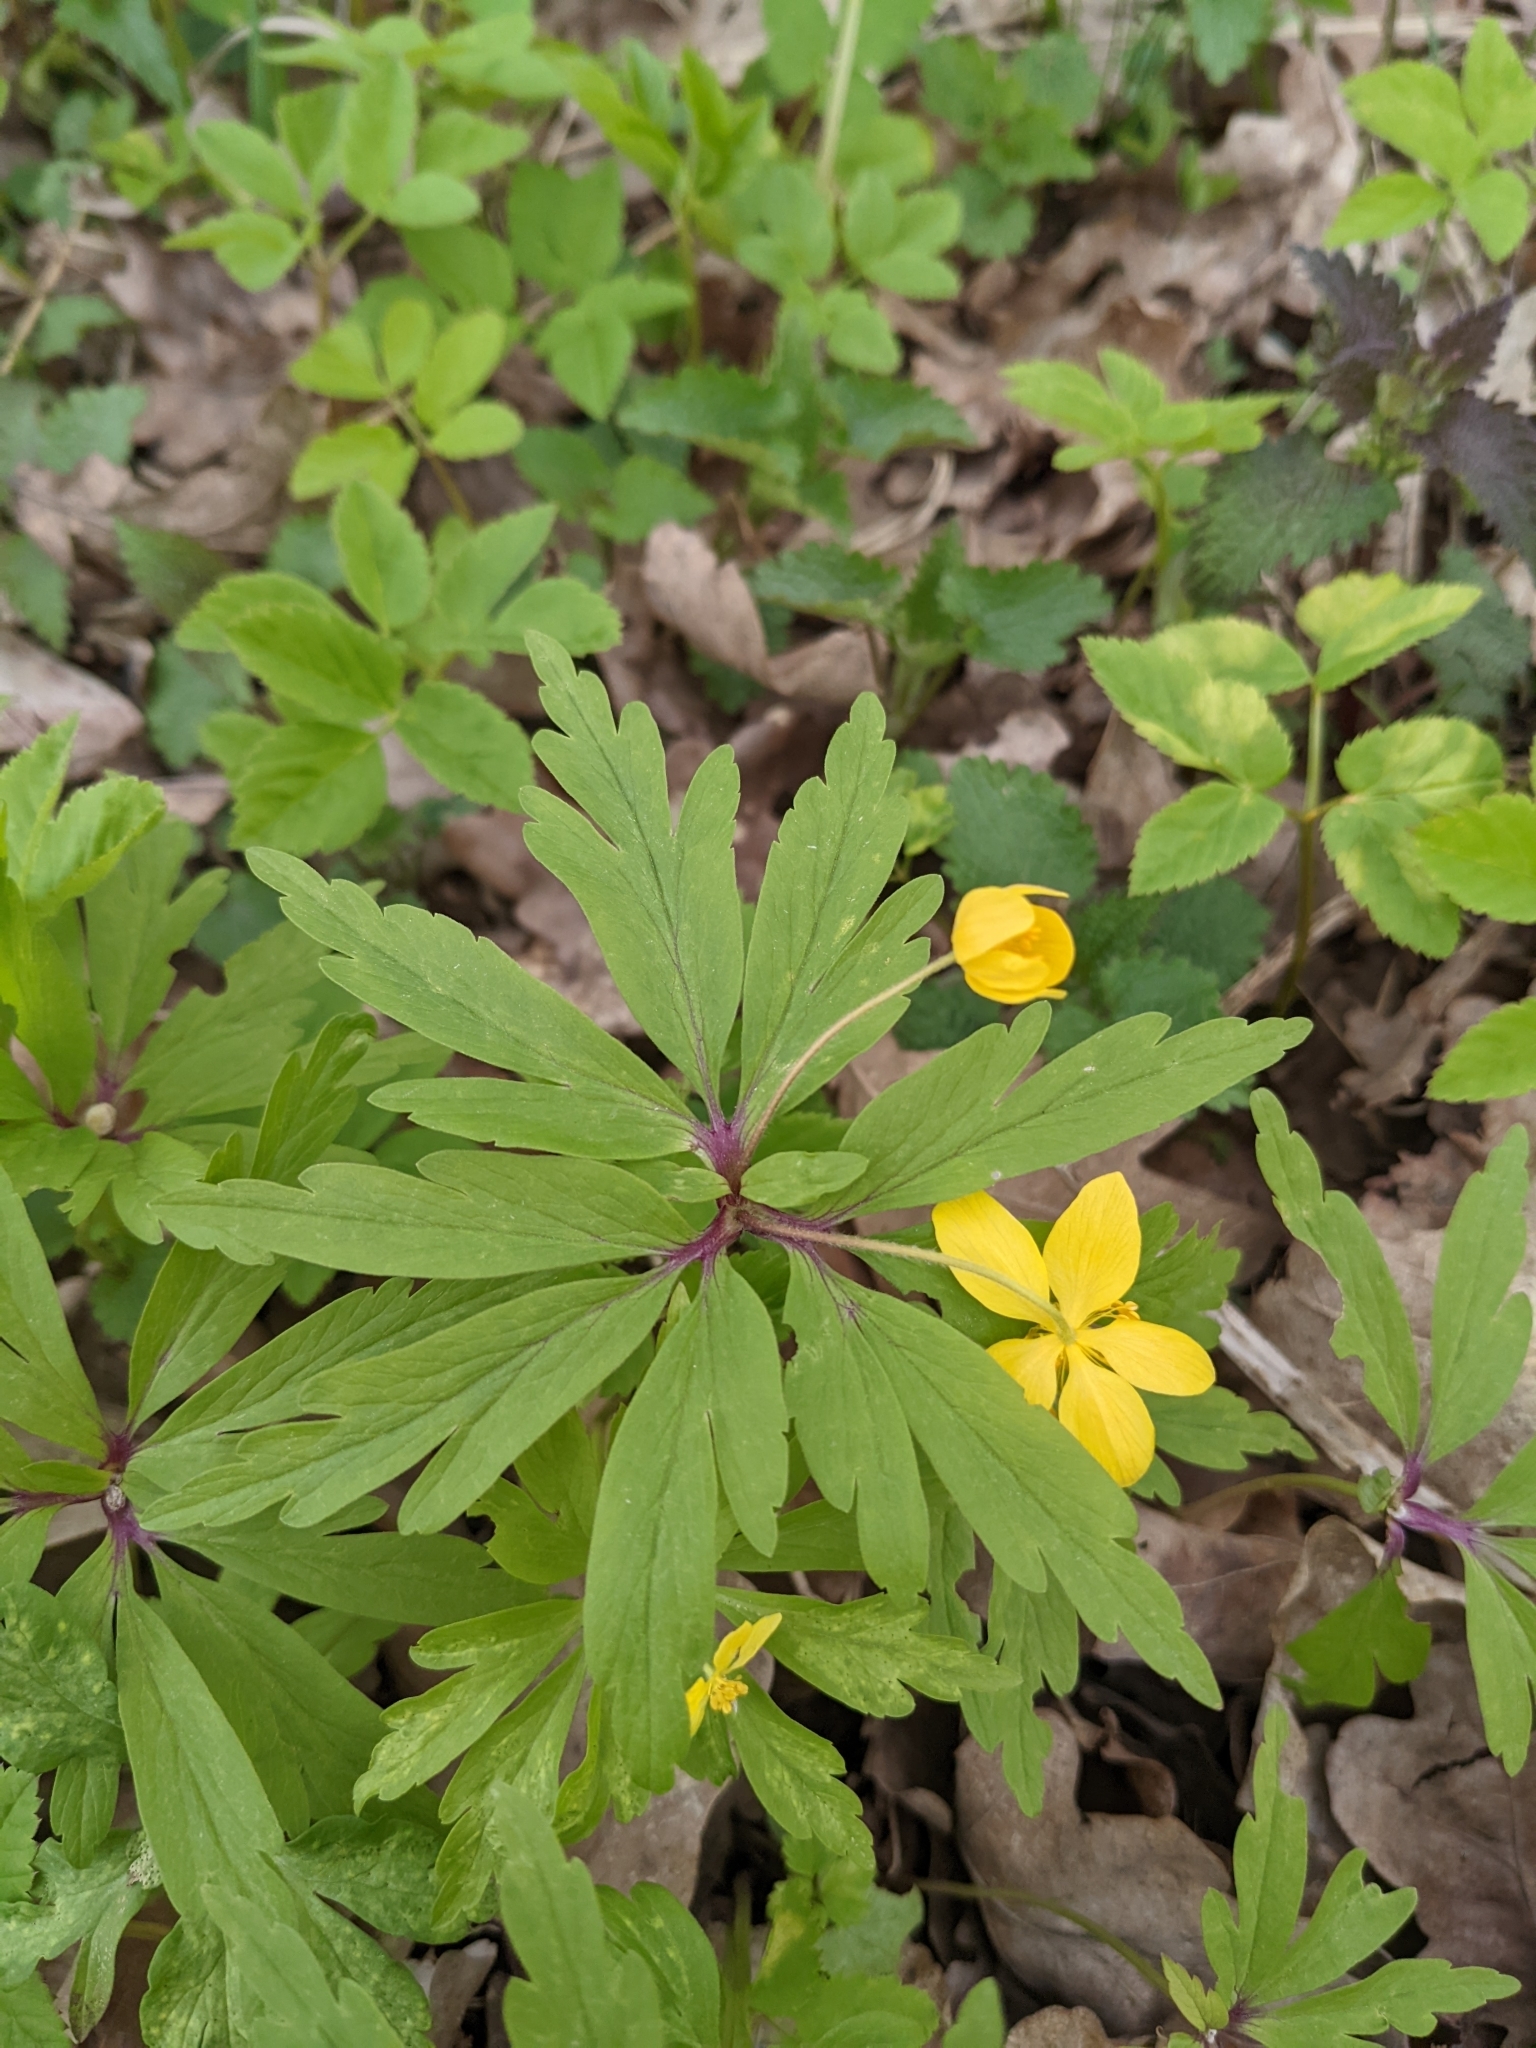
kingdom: Plantae
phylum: Tracheophyta
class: Magnoliopsida
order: Ranunculales
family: Ranunculaceae
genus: Anemone
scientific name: Anemone ranunculoides
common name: Yellow anemone
